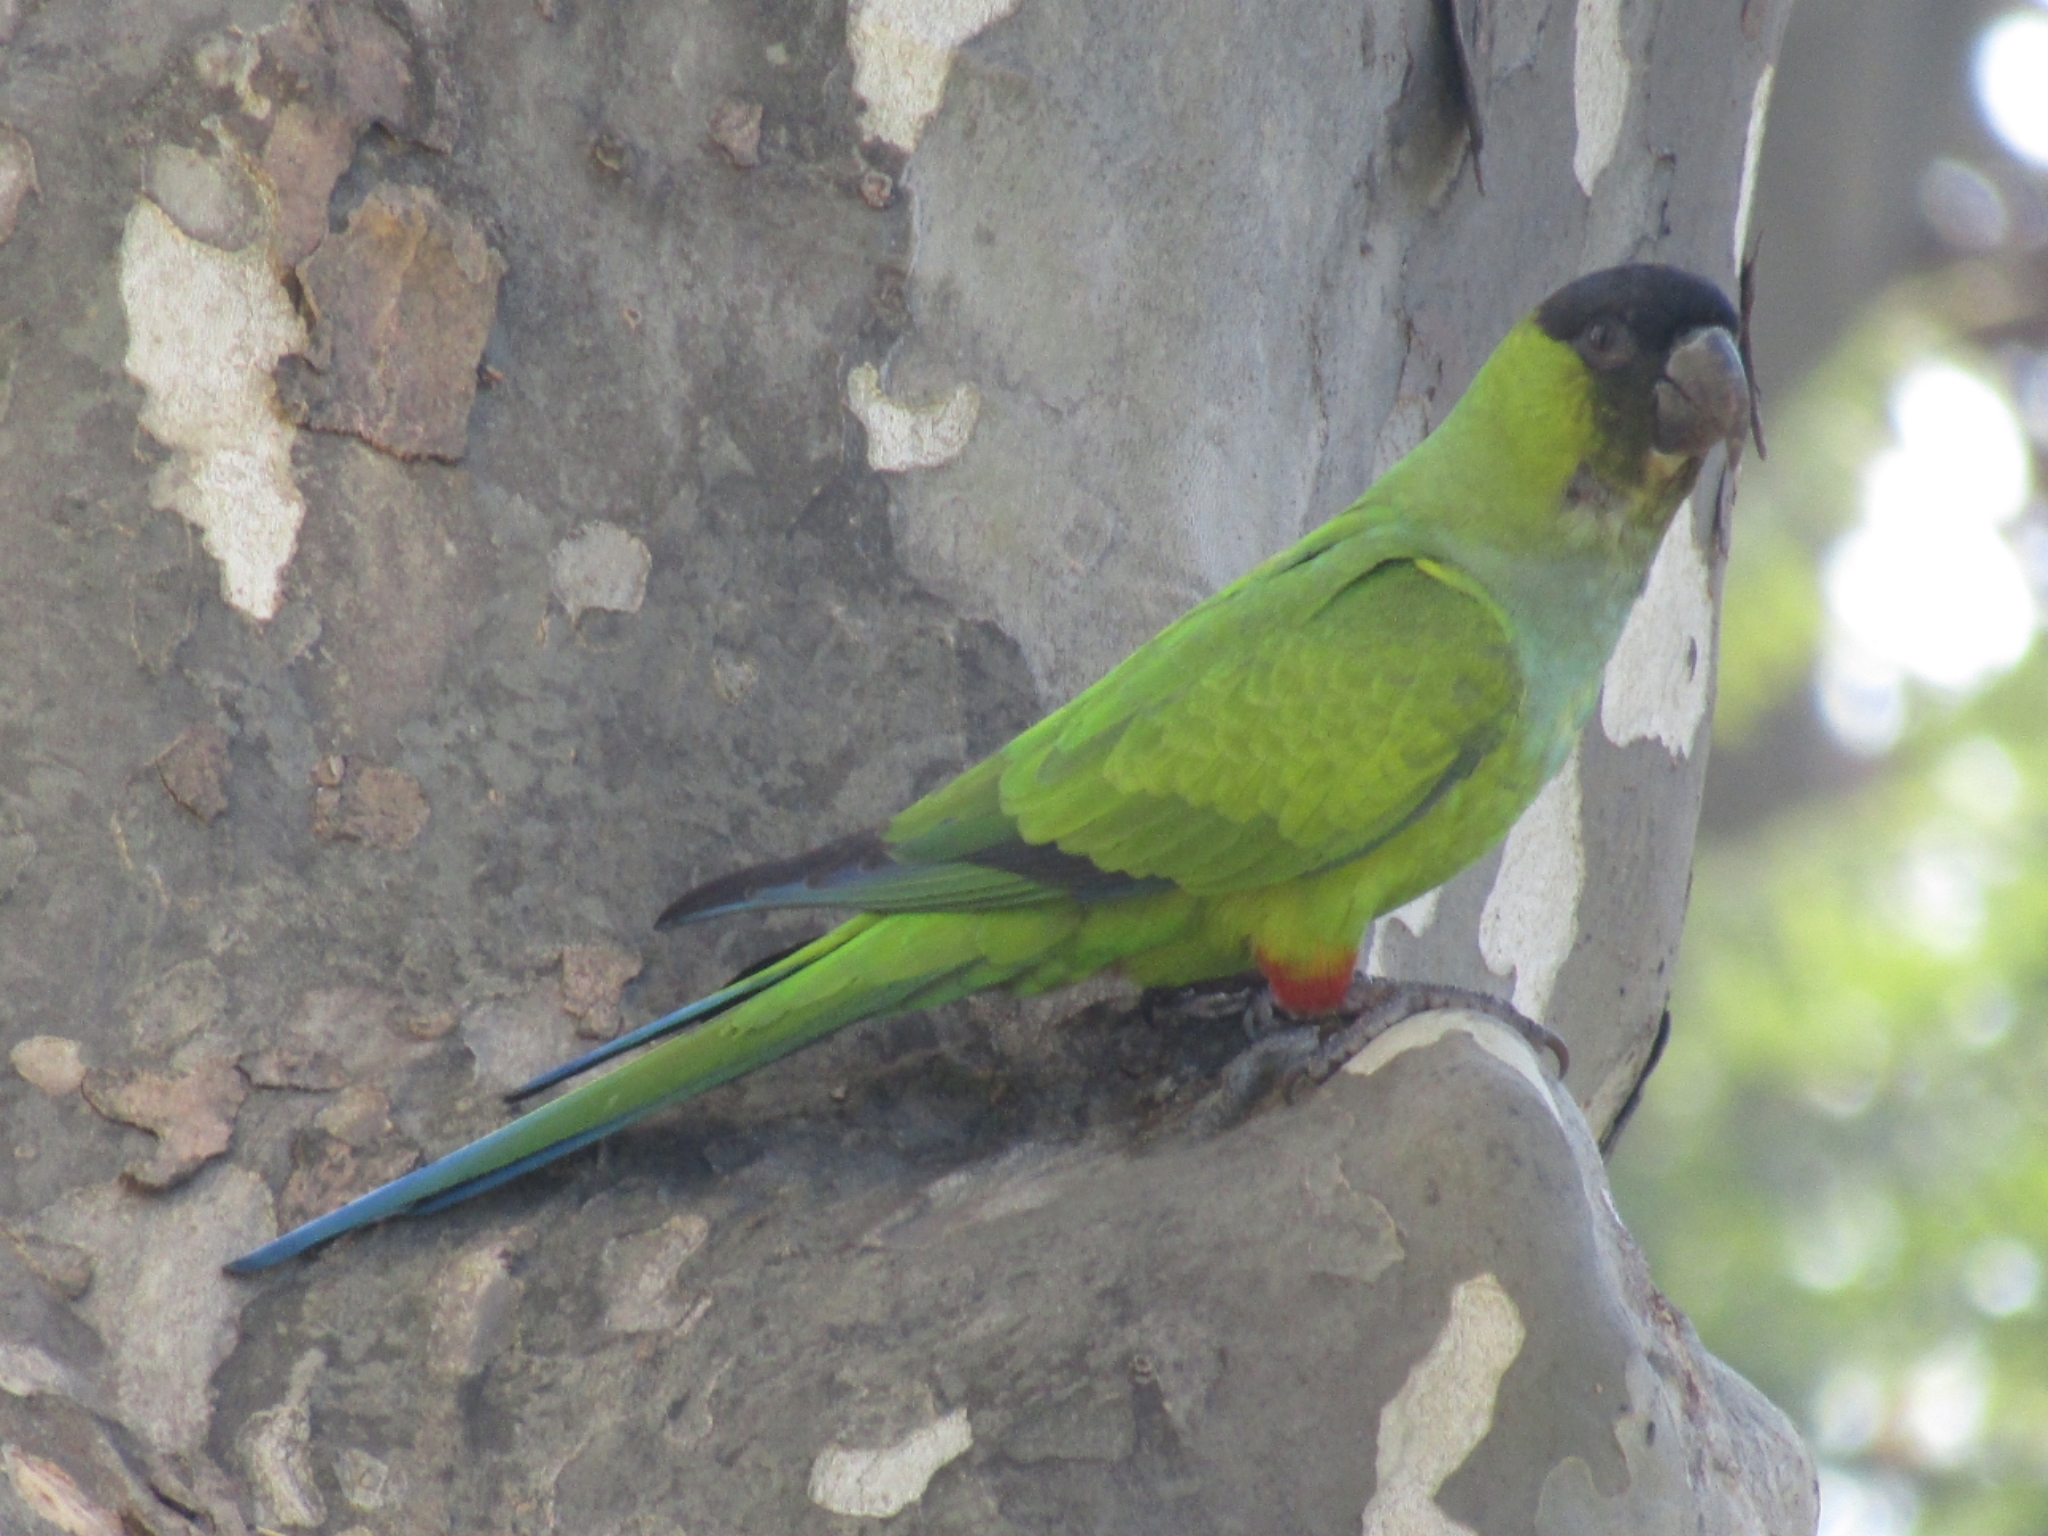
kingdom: Animalia
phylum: Chordata
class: Aves
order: Psittaciformes
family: Psittacidae
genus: Nandayus
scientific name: Nandayus nenday
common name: Nanday parakeet
